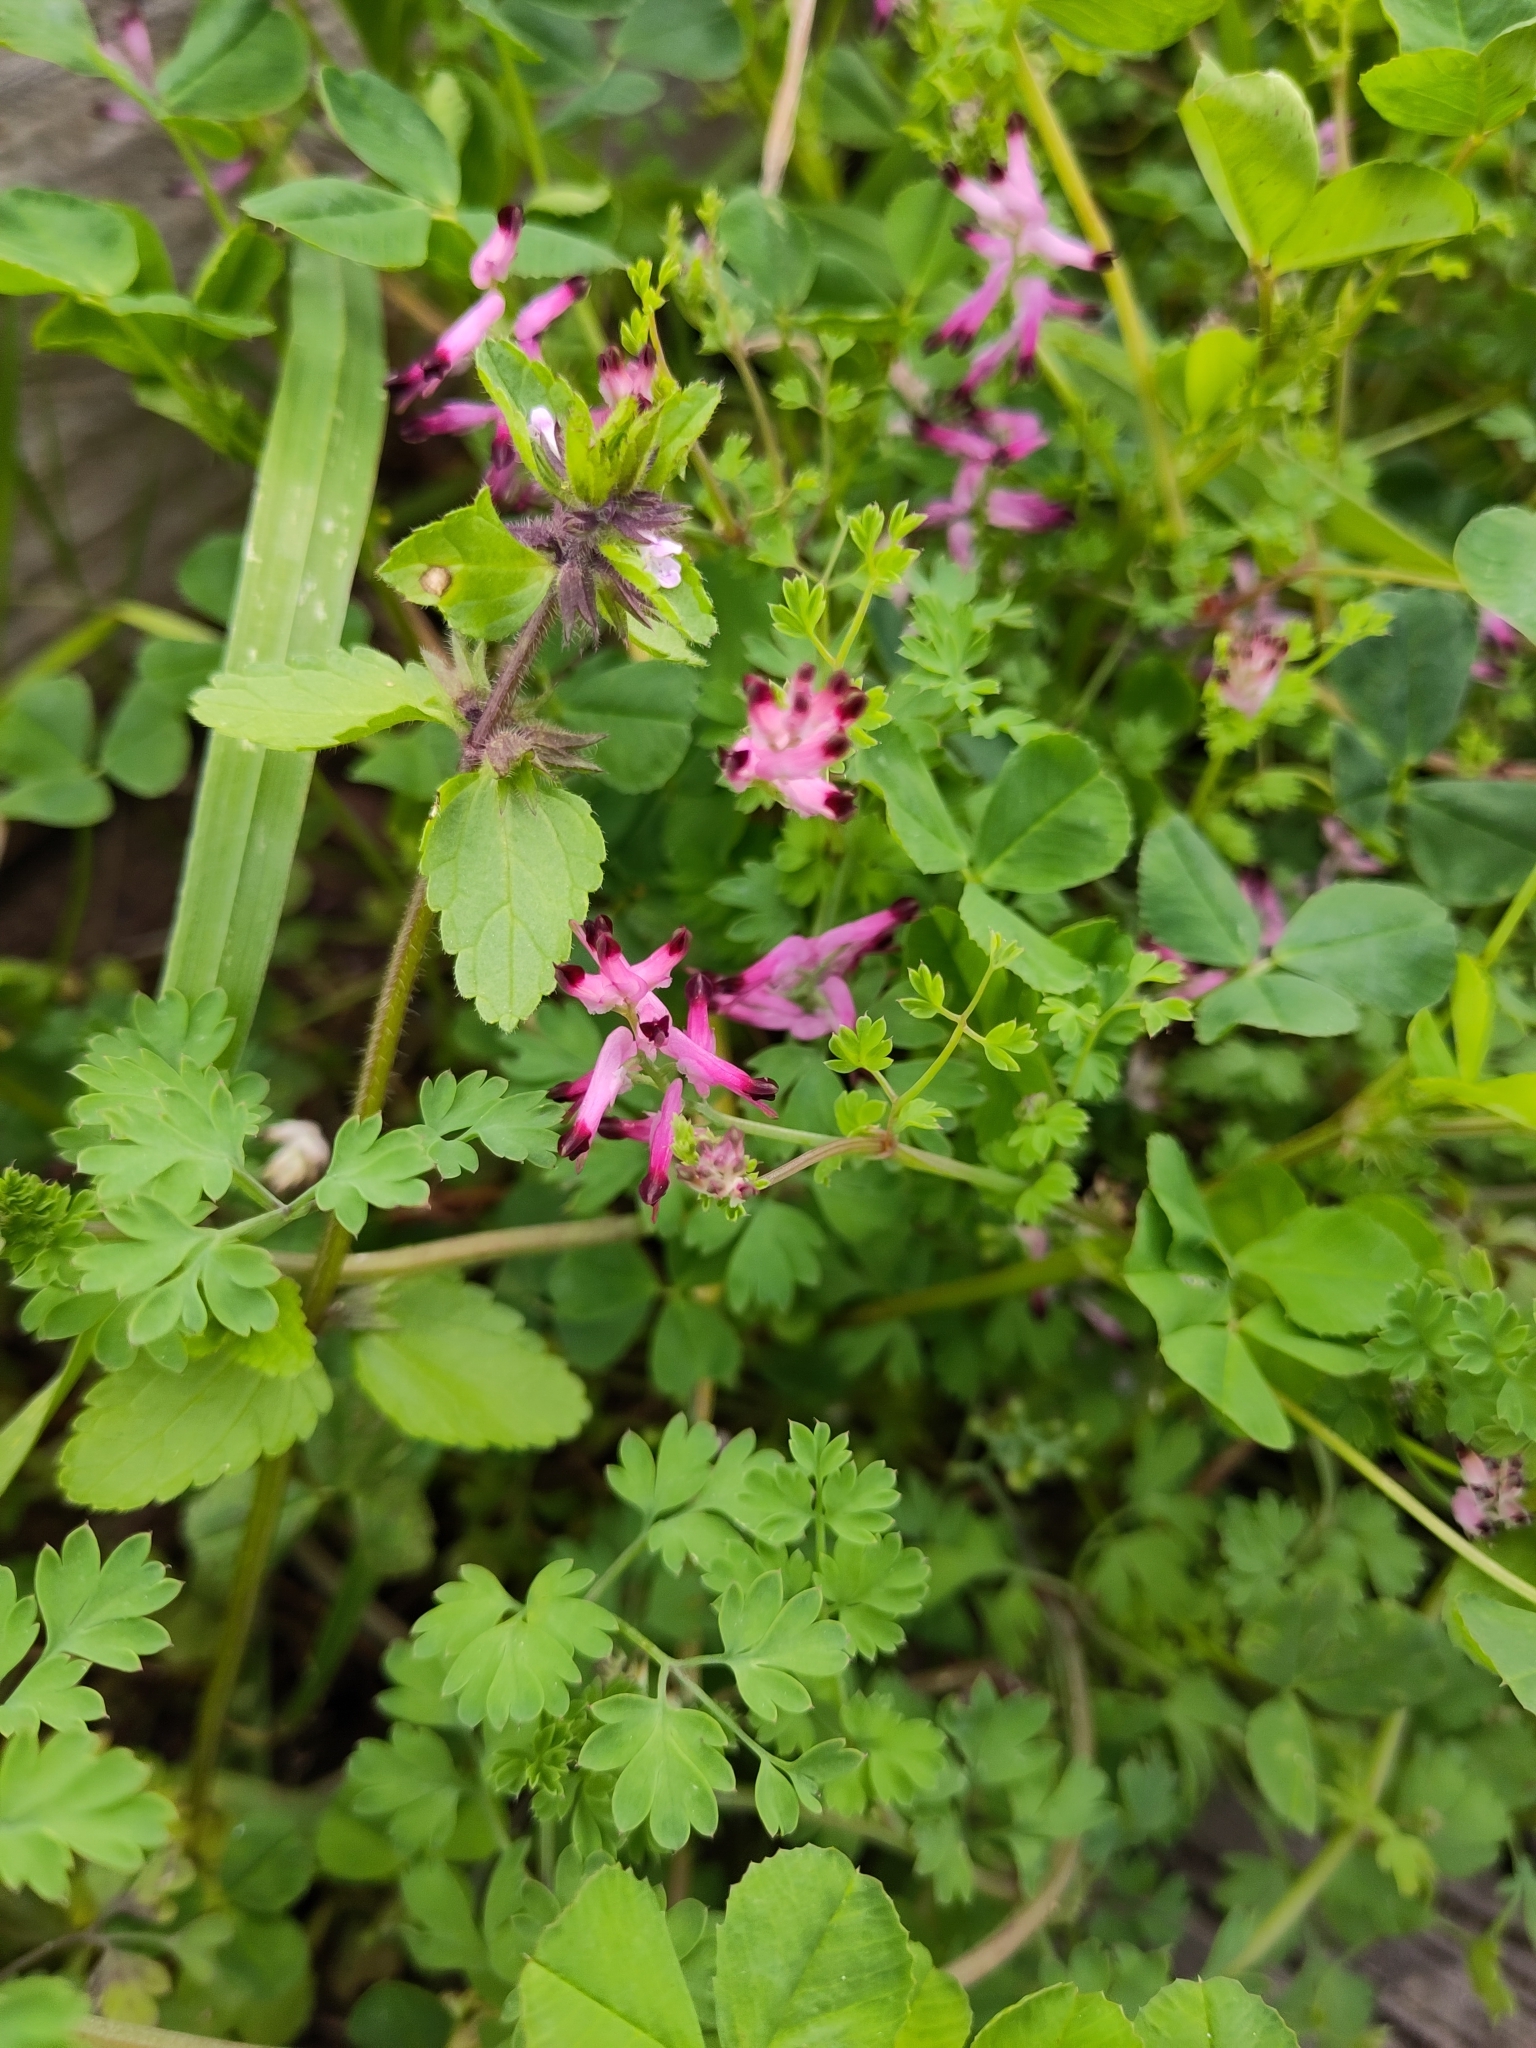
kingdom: Plantae
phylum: Tracheophyta
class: Magnoliopsida
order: Ranunculales
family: Papaveraceae
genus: Fumaria
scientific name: Fumaria muralis
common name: Common ramping-fumitory
